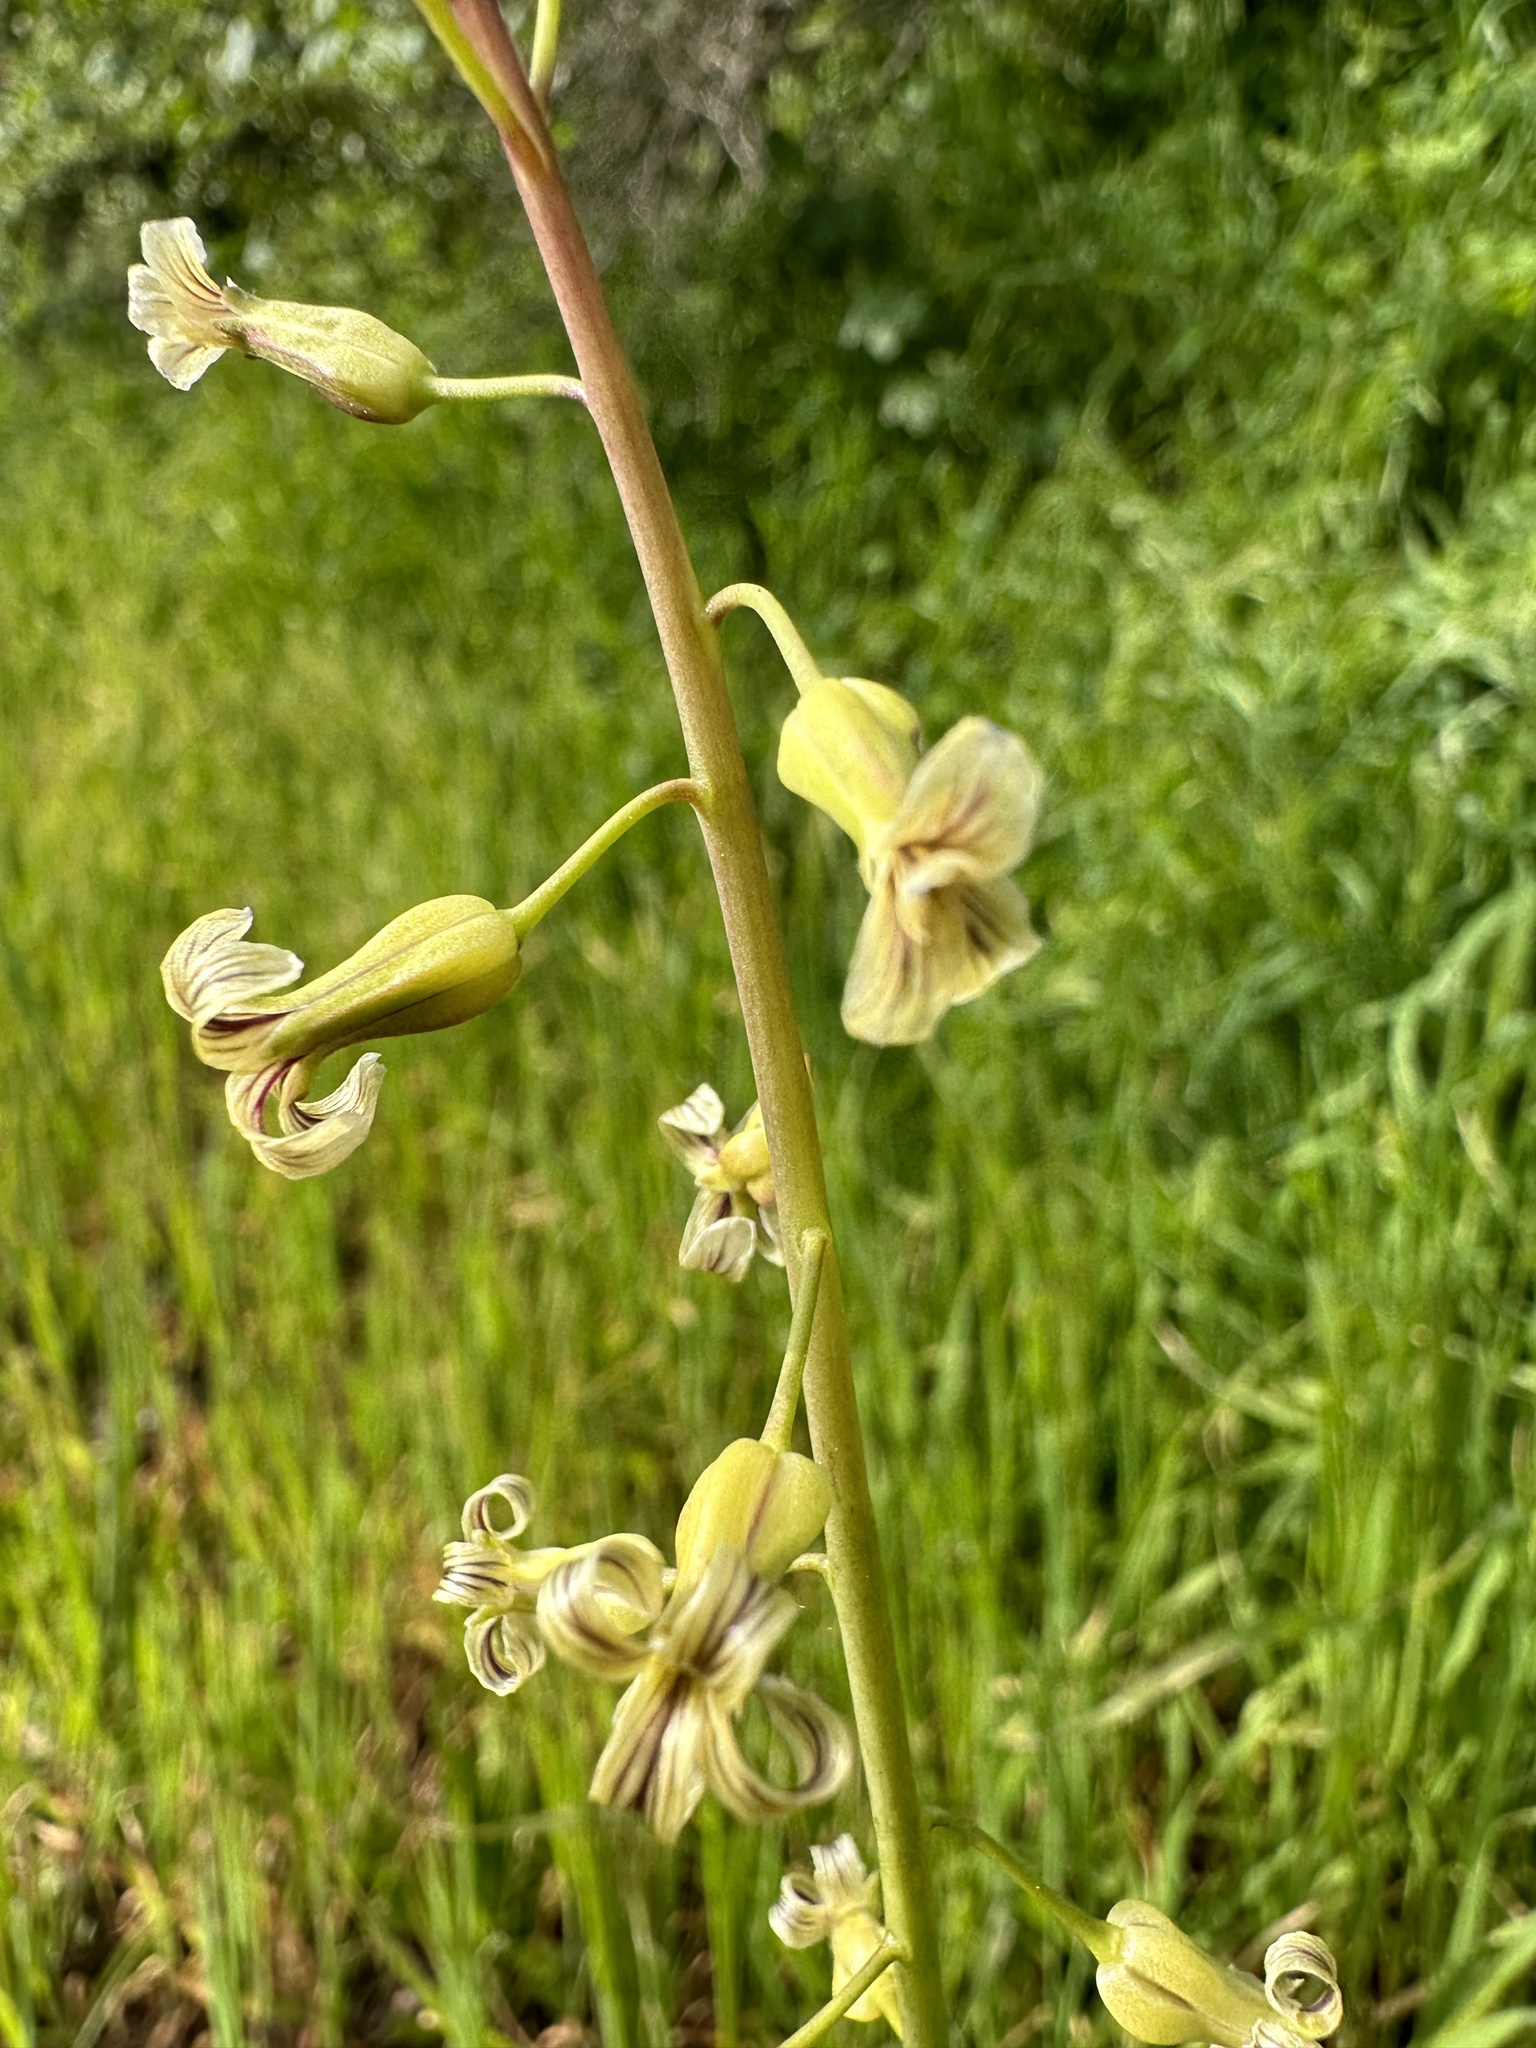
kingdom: Plantae
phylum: Tracheophyta
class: Magnoliopsida
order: Brassicales
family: Brassicaceae
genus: Streptanthus
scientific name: Streptanthus heterophyllus
